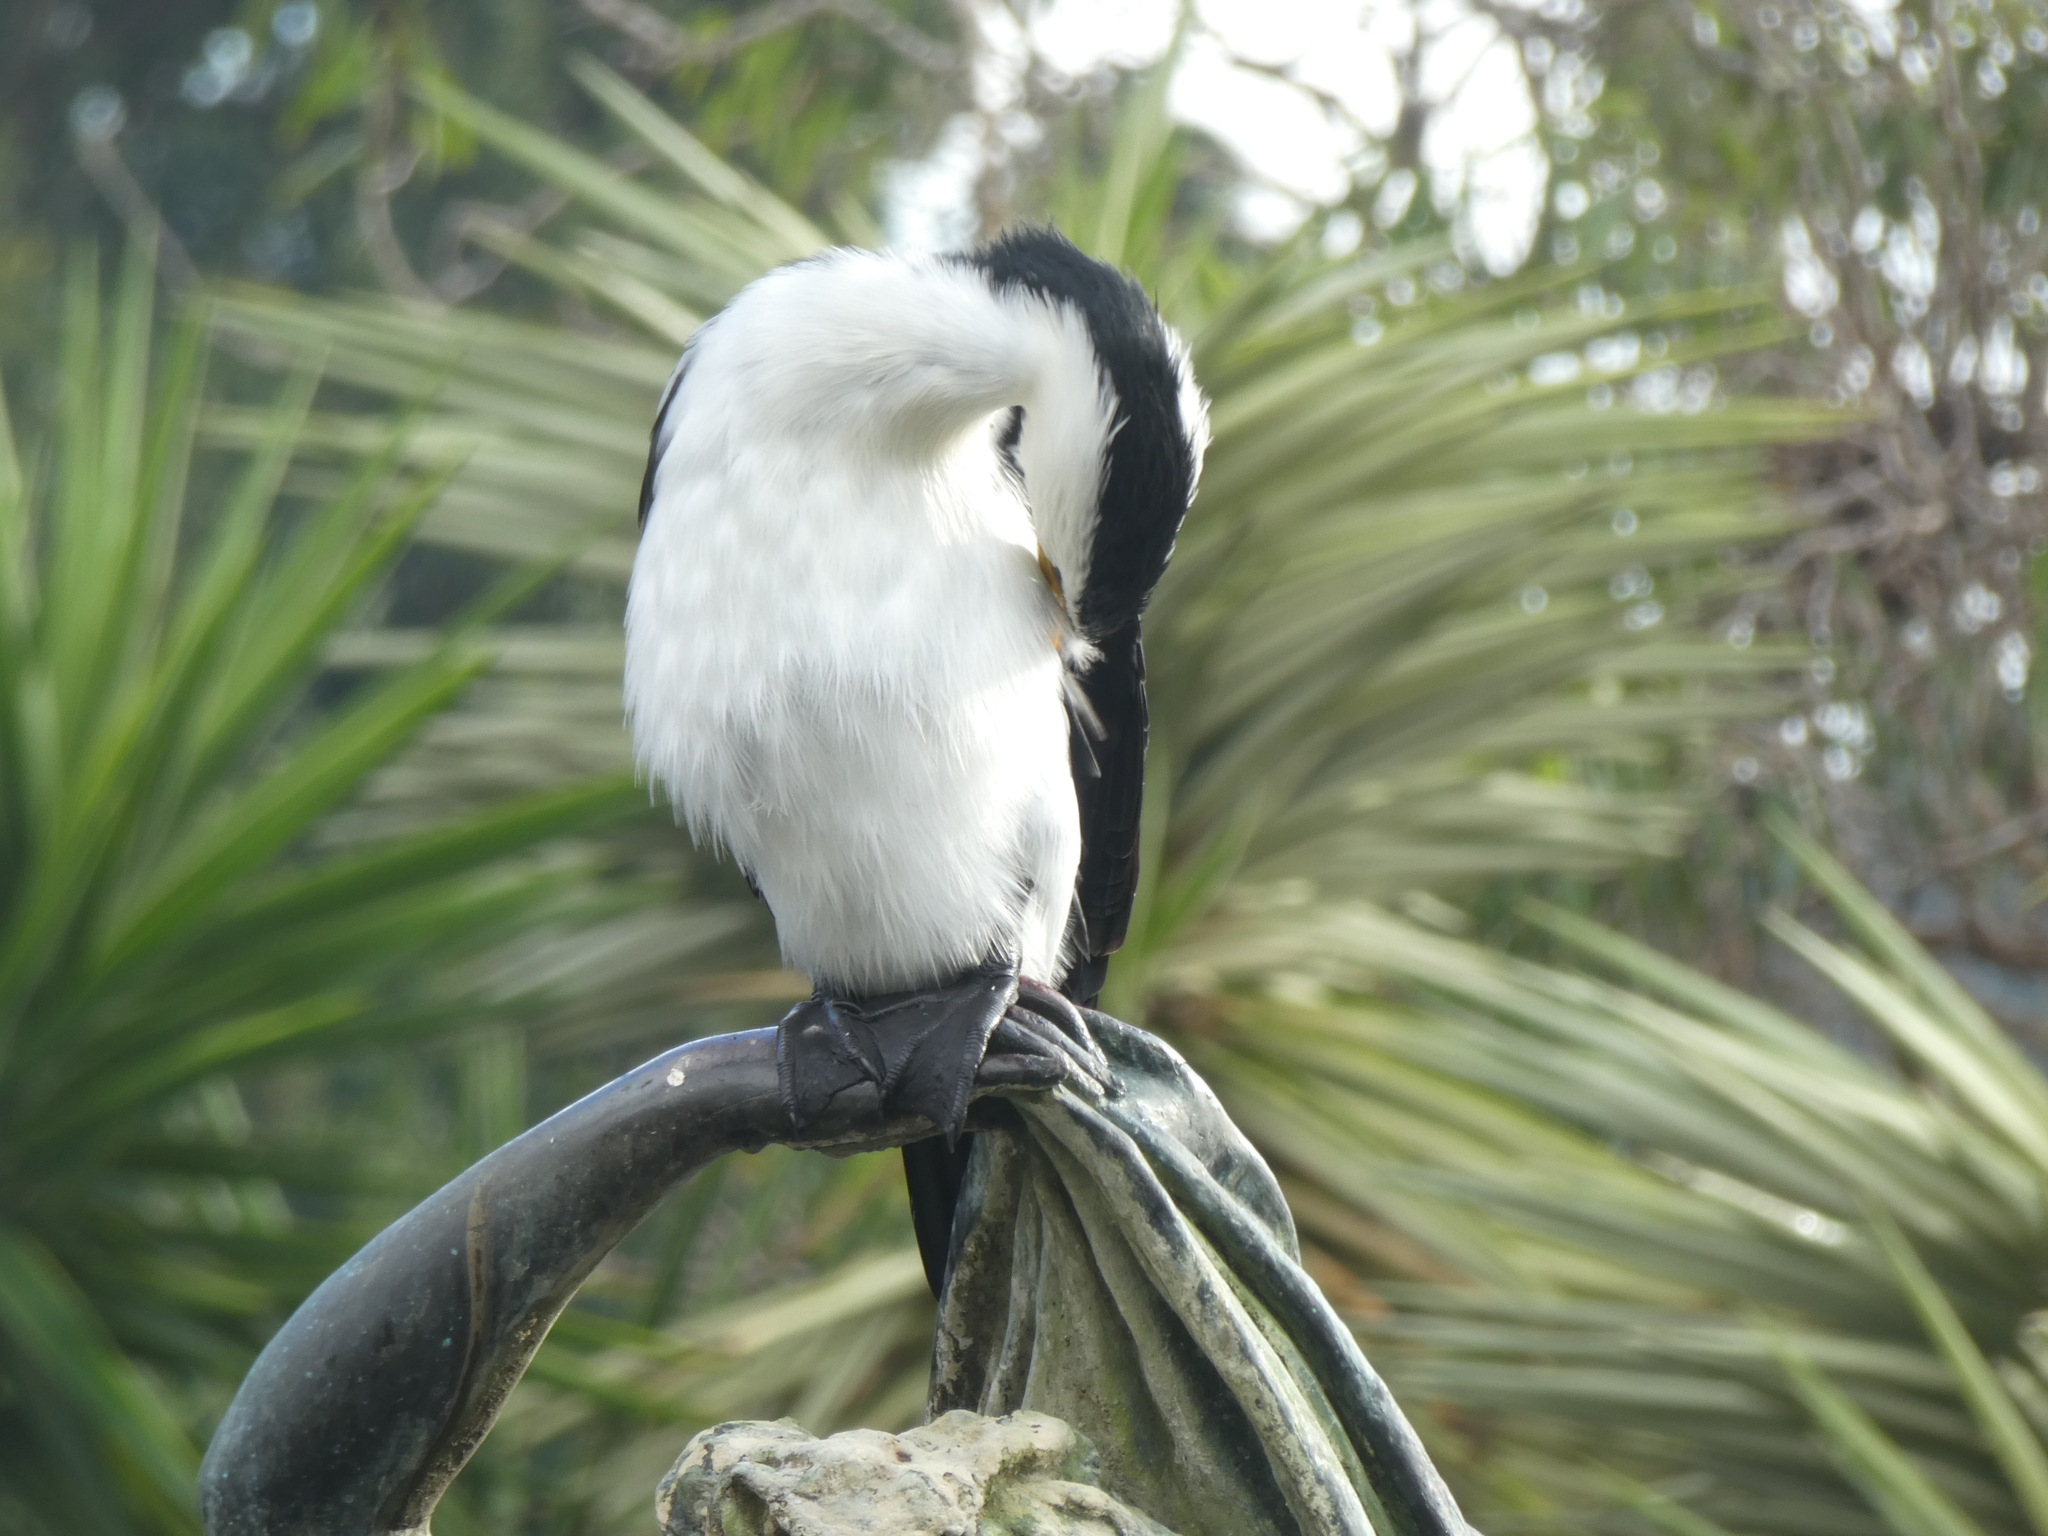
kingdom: Animalia
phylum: Chordata
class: Aves
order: Suliformes
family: Phalacrocoracidae
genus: Microcarbo
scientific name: Microcarbo melanoleucos
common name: Little pied cormorant
